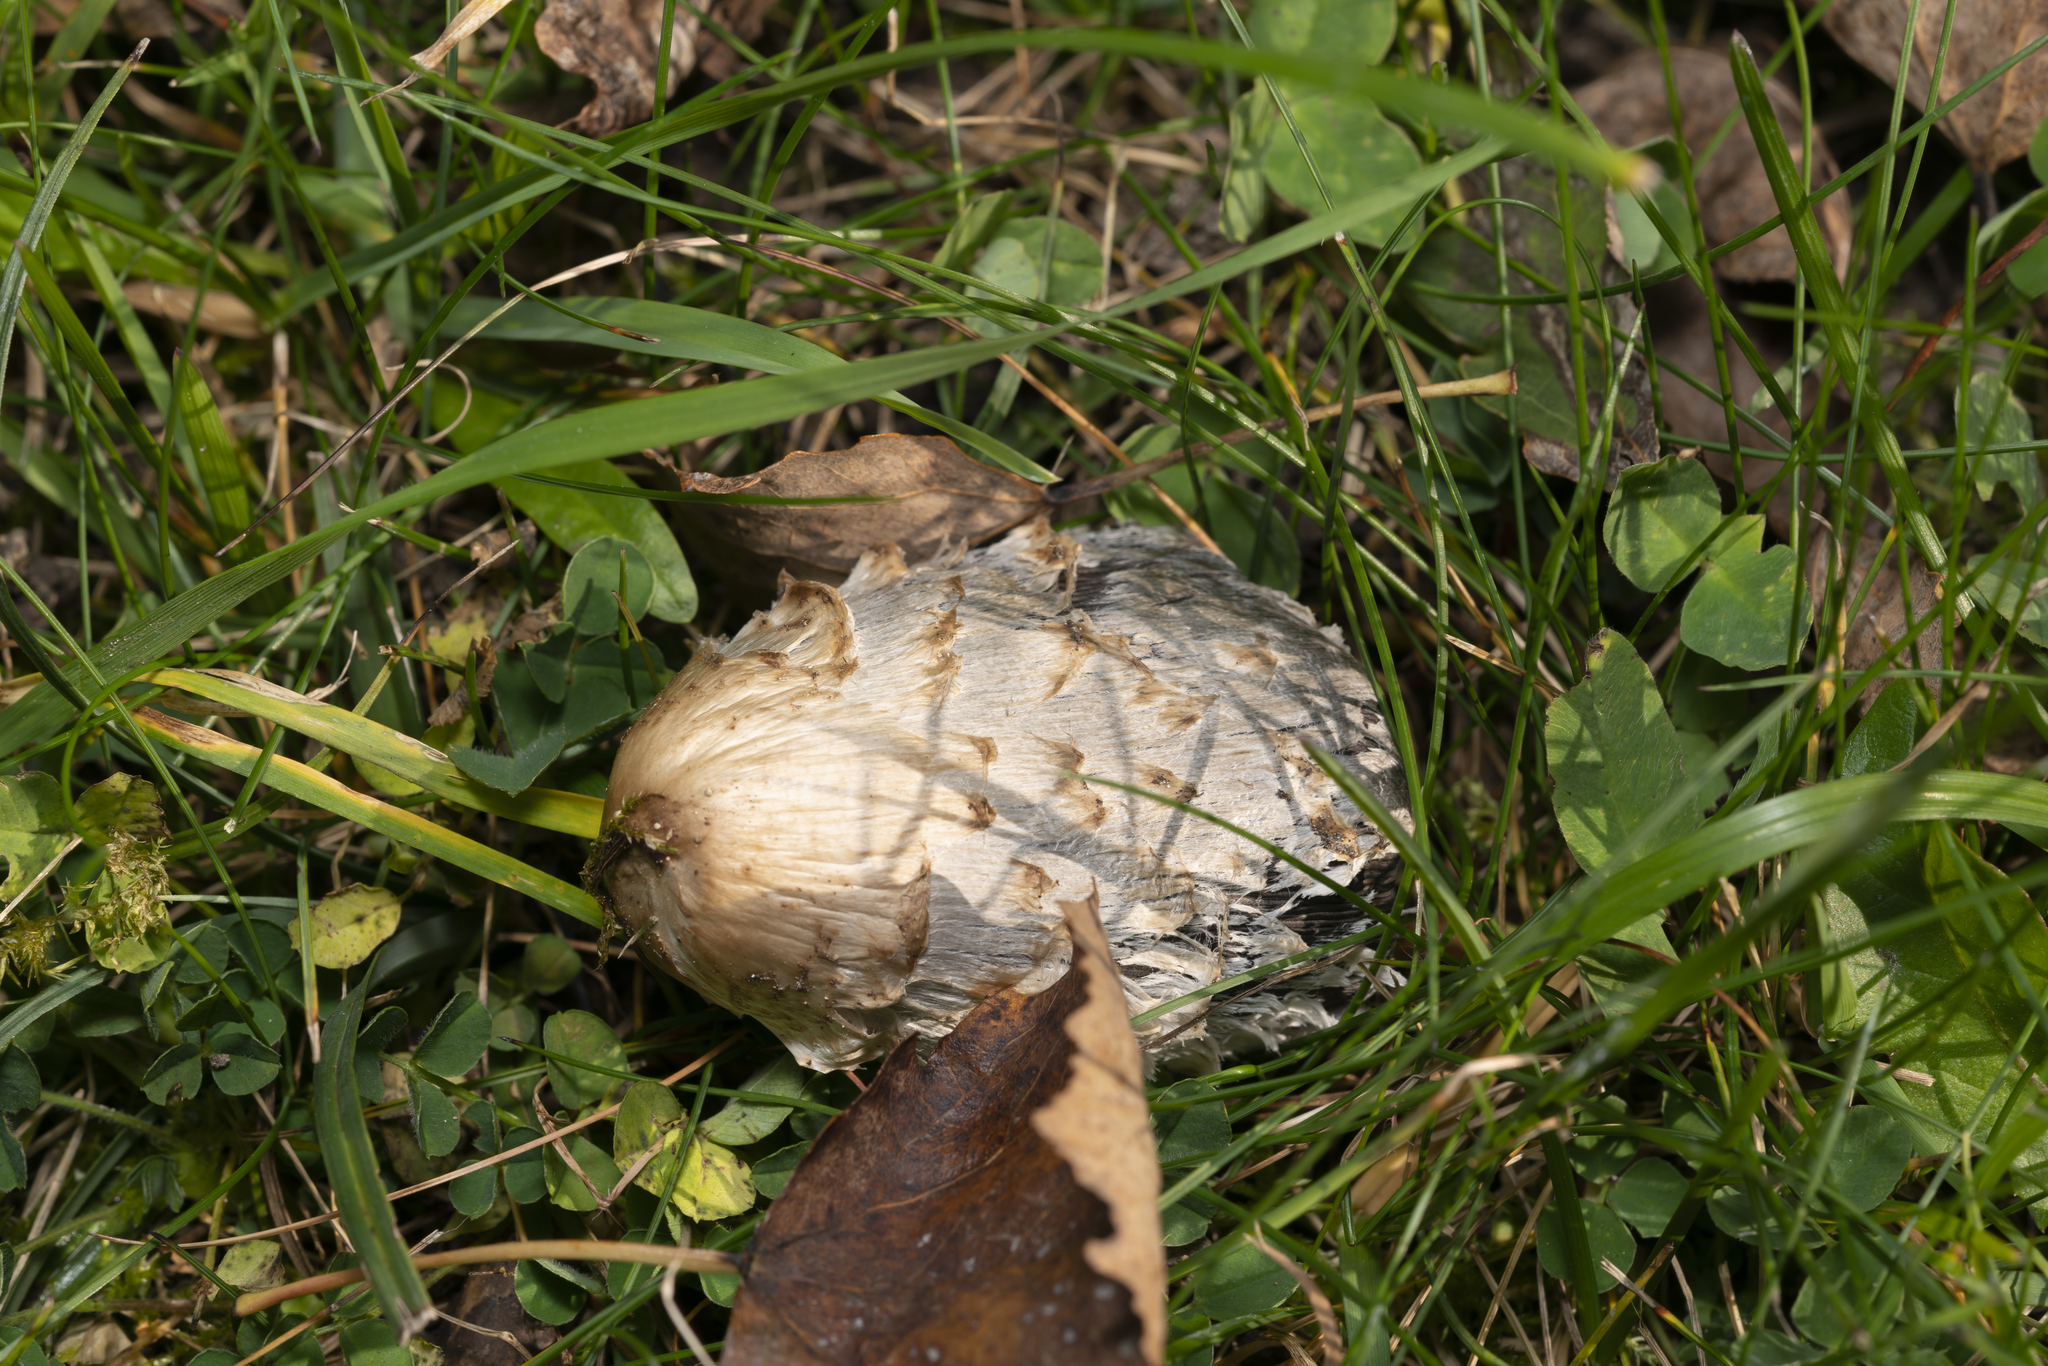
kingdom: Fungi
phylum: Basidiomycota
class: Agaricomycetes
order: Agaricales
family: Agaricaceae
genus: Coprinus
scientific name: Coprinus comatus
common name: Lawyer's wig
